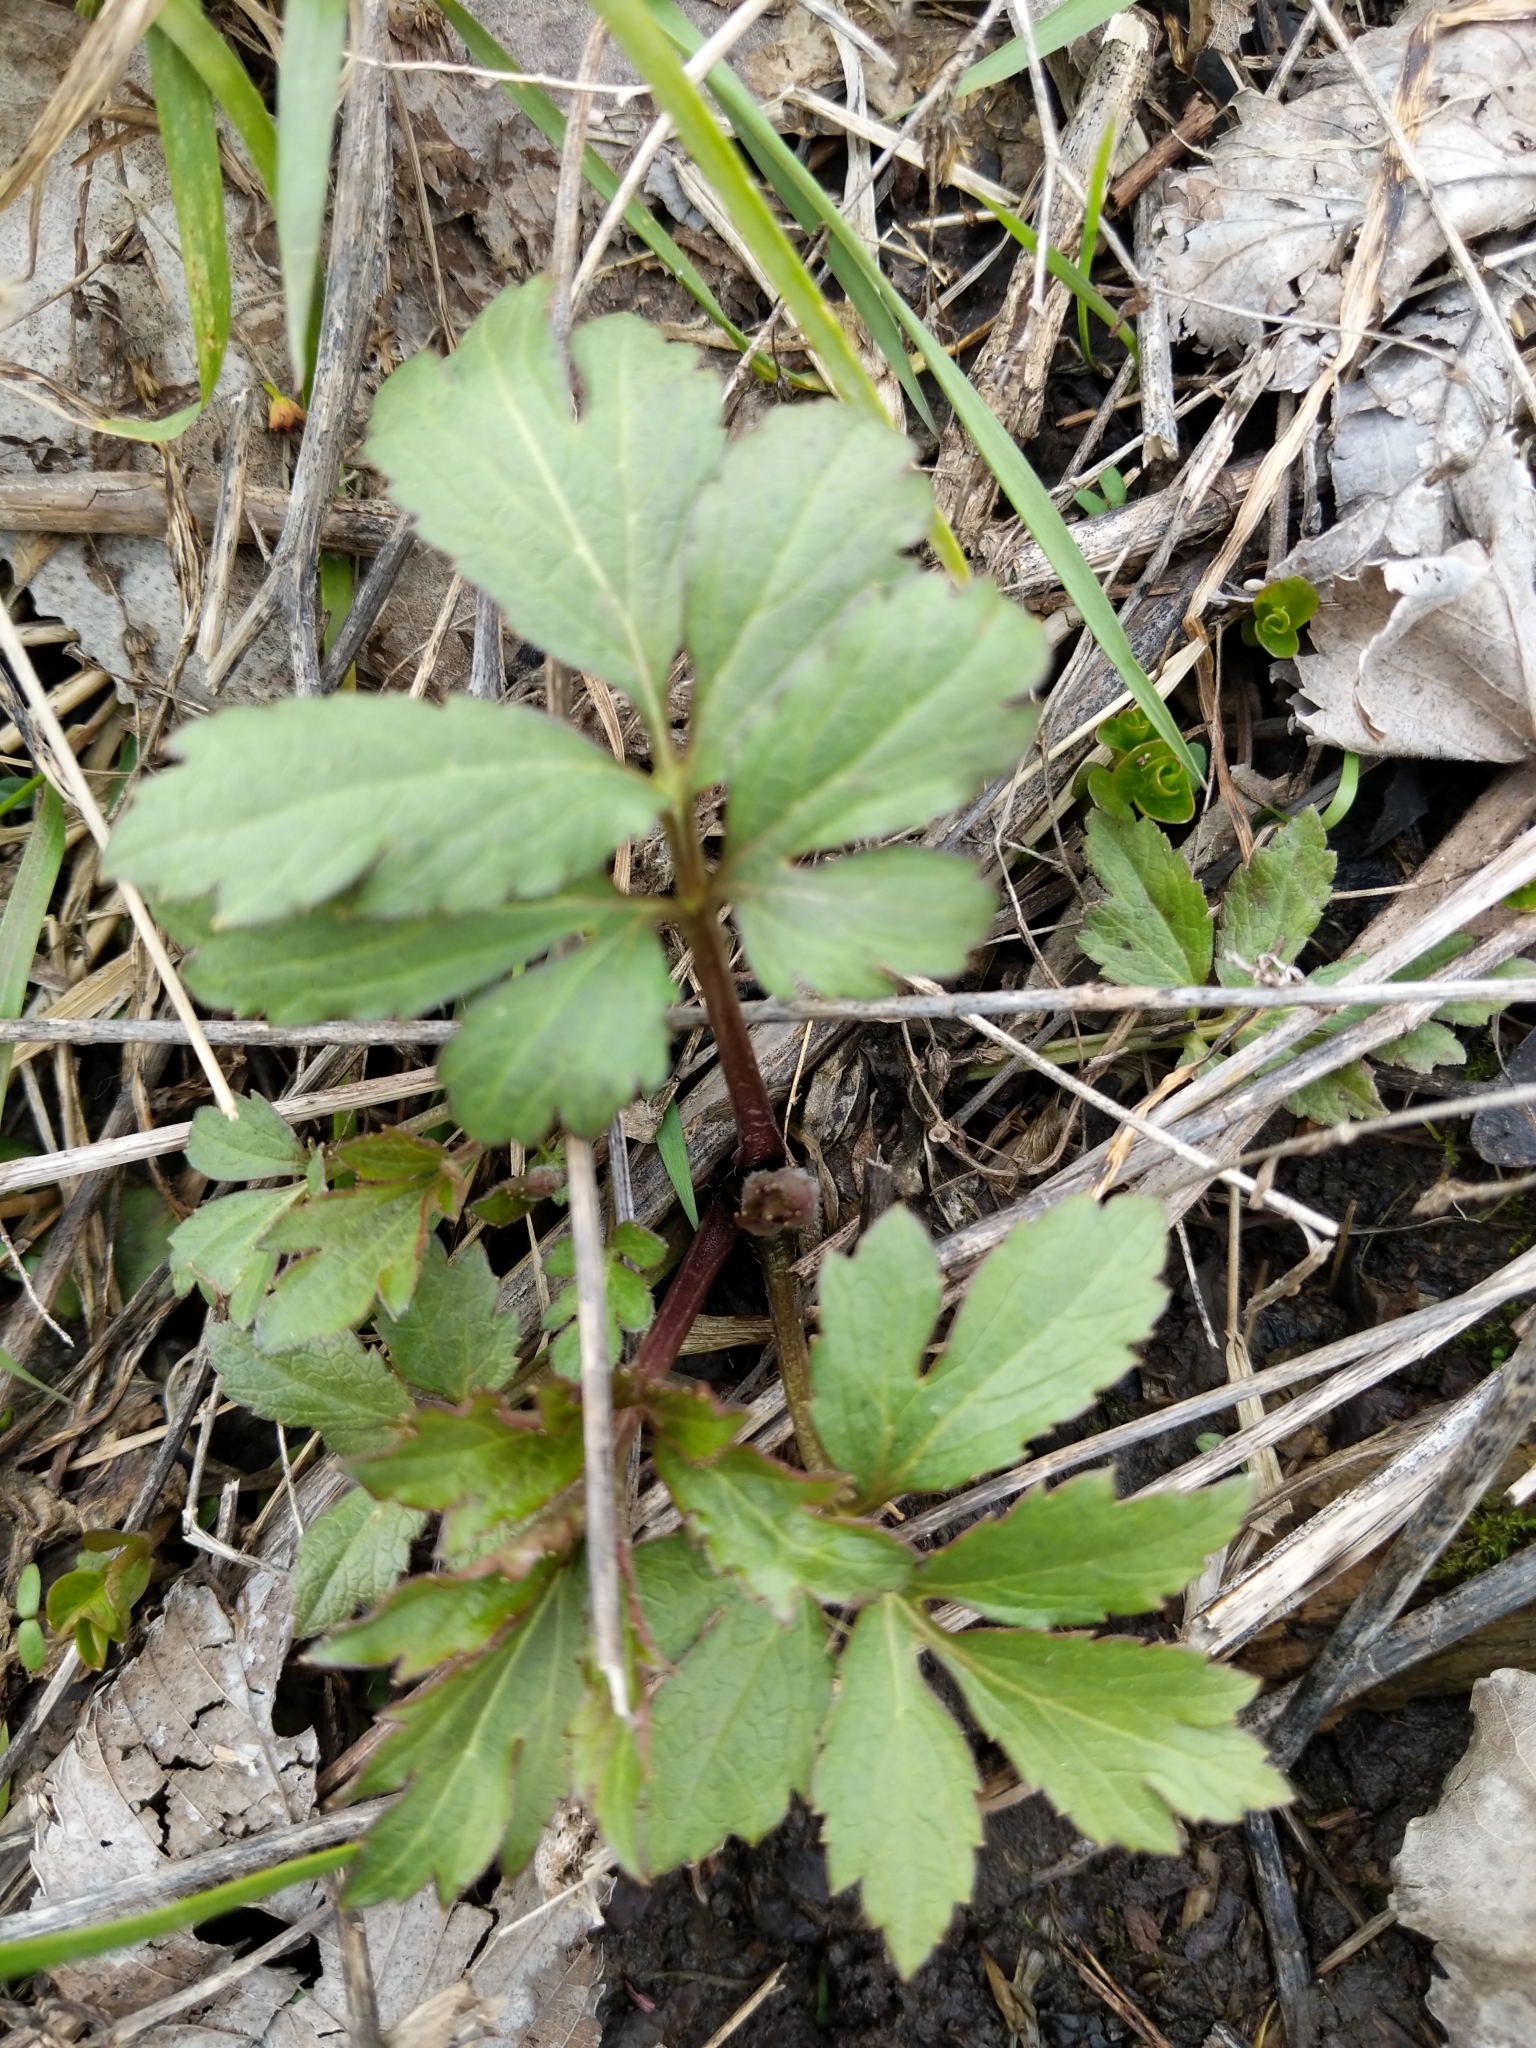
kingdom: Plantae
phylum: Tracheophyta
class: Magnoliopsida
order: Asterales
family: Asteraceae
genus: Rudbeckia
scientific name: Rudbeckia laciniata
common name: Coneflower
